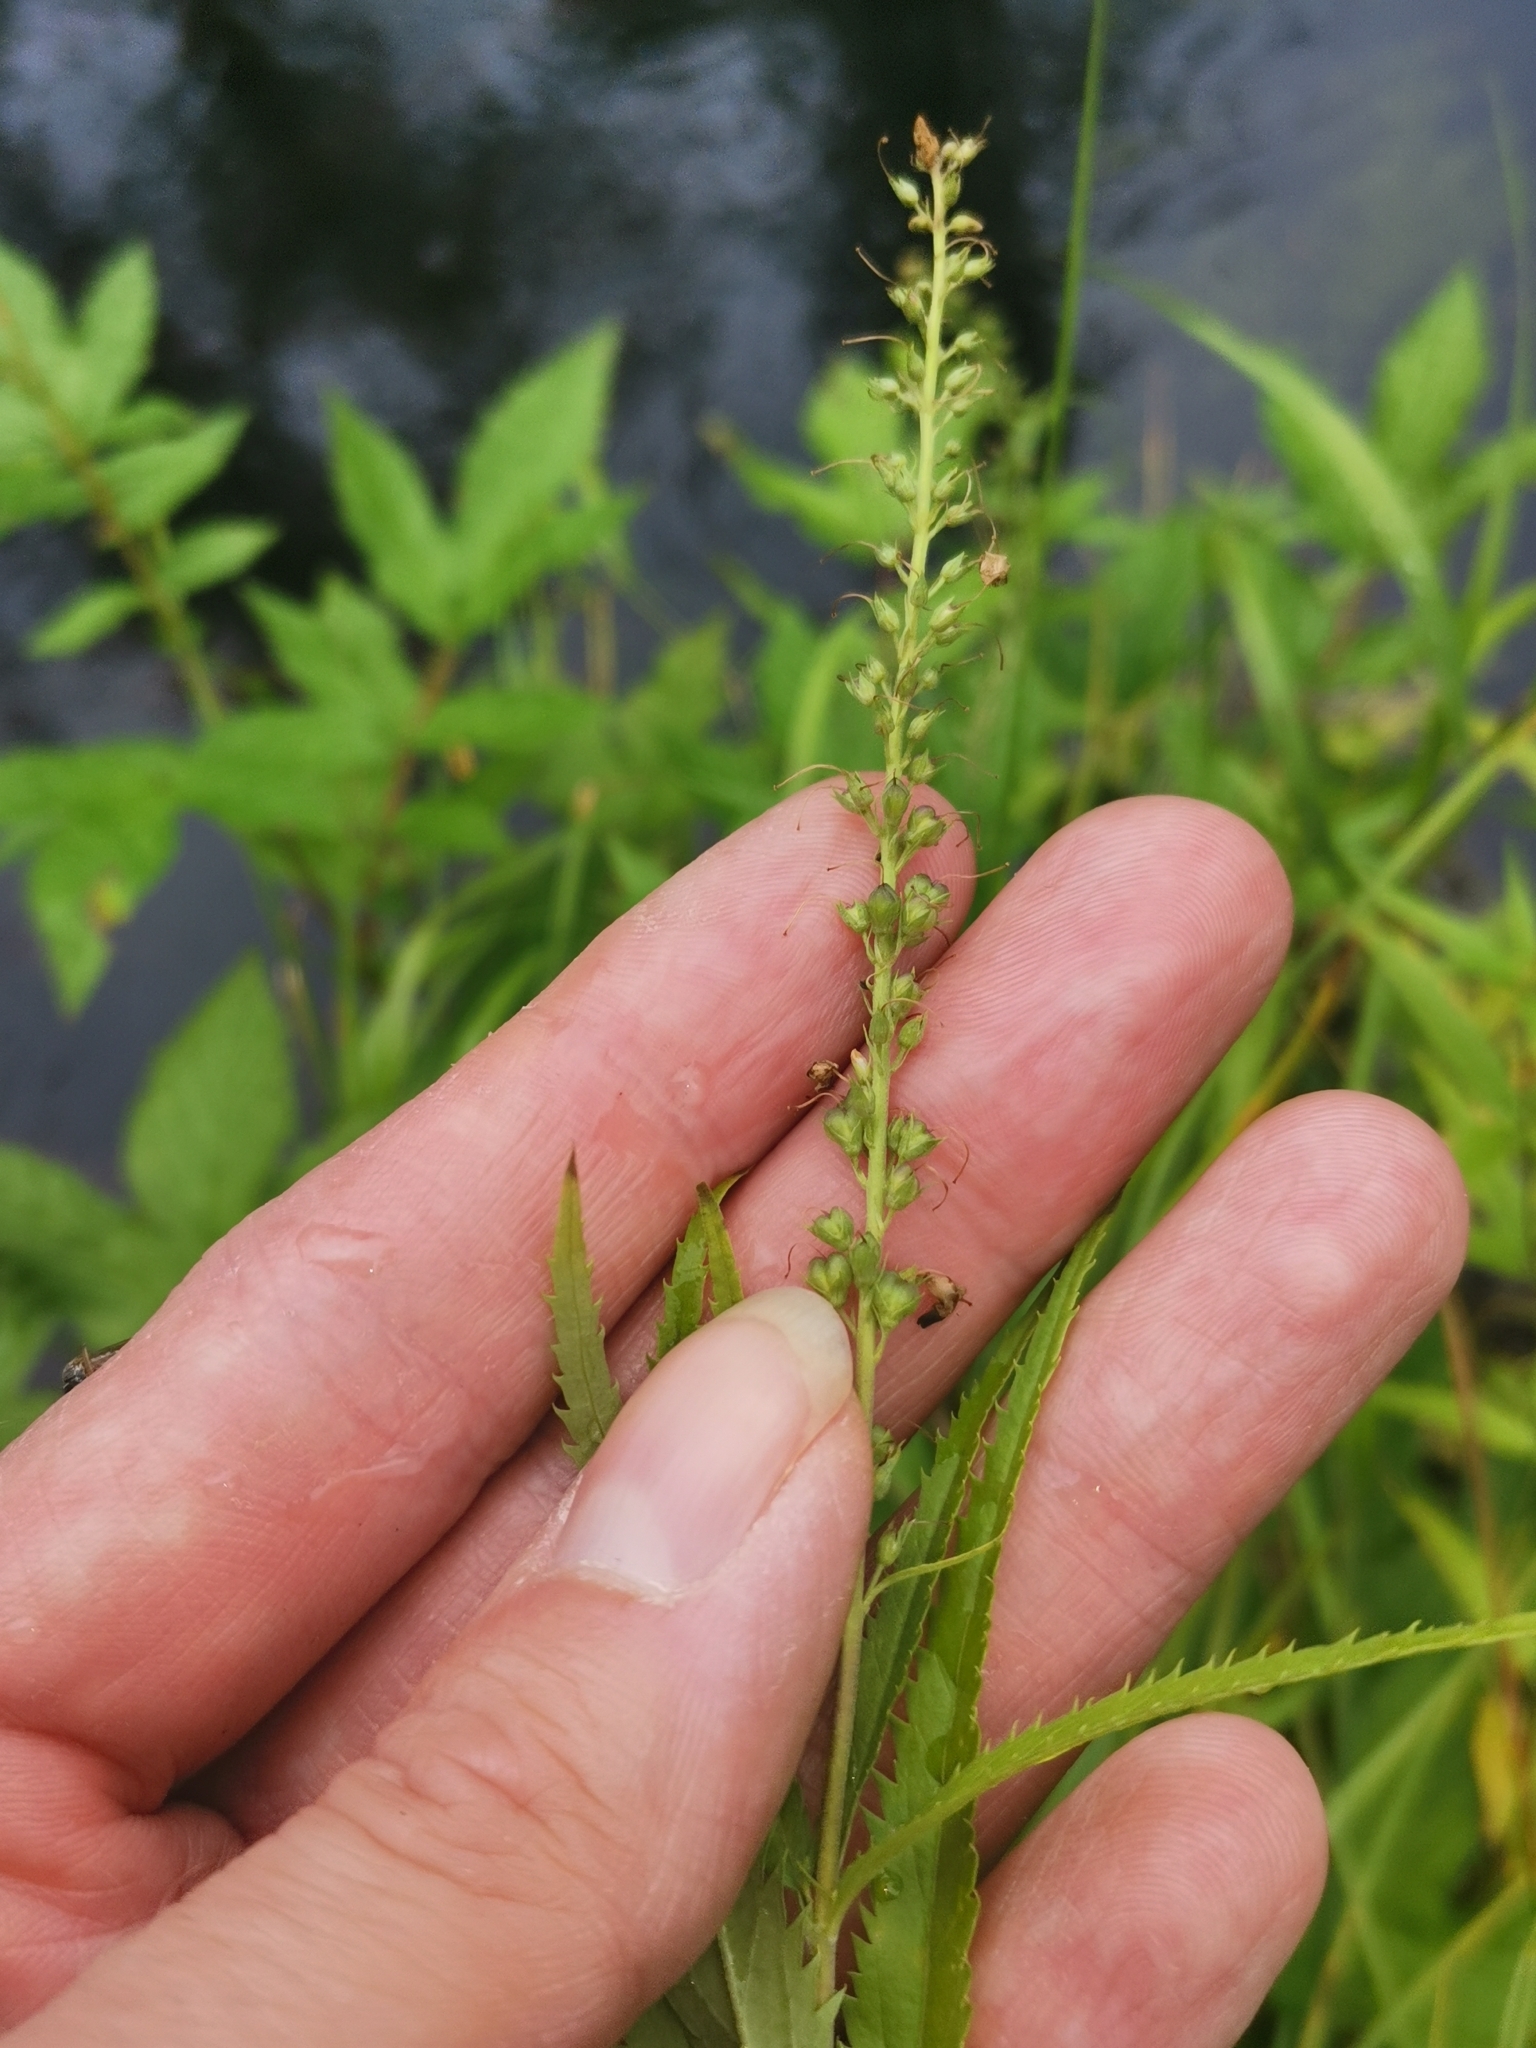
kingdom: Plantae
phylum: Tracheophyta
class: Magnoliopsida
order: Lamiales
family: Plantaginaceae
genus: Veronica
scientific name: Veronica longifolia
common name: Garden speedwell
